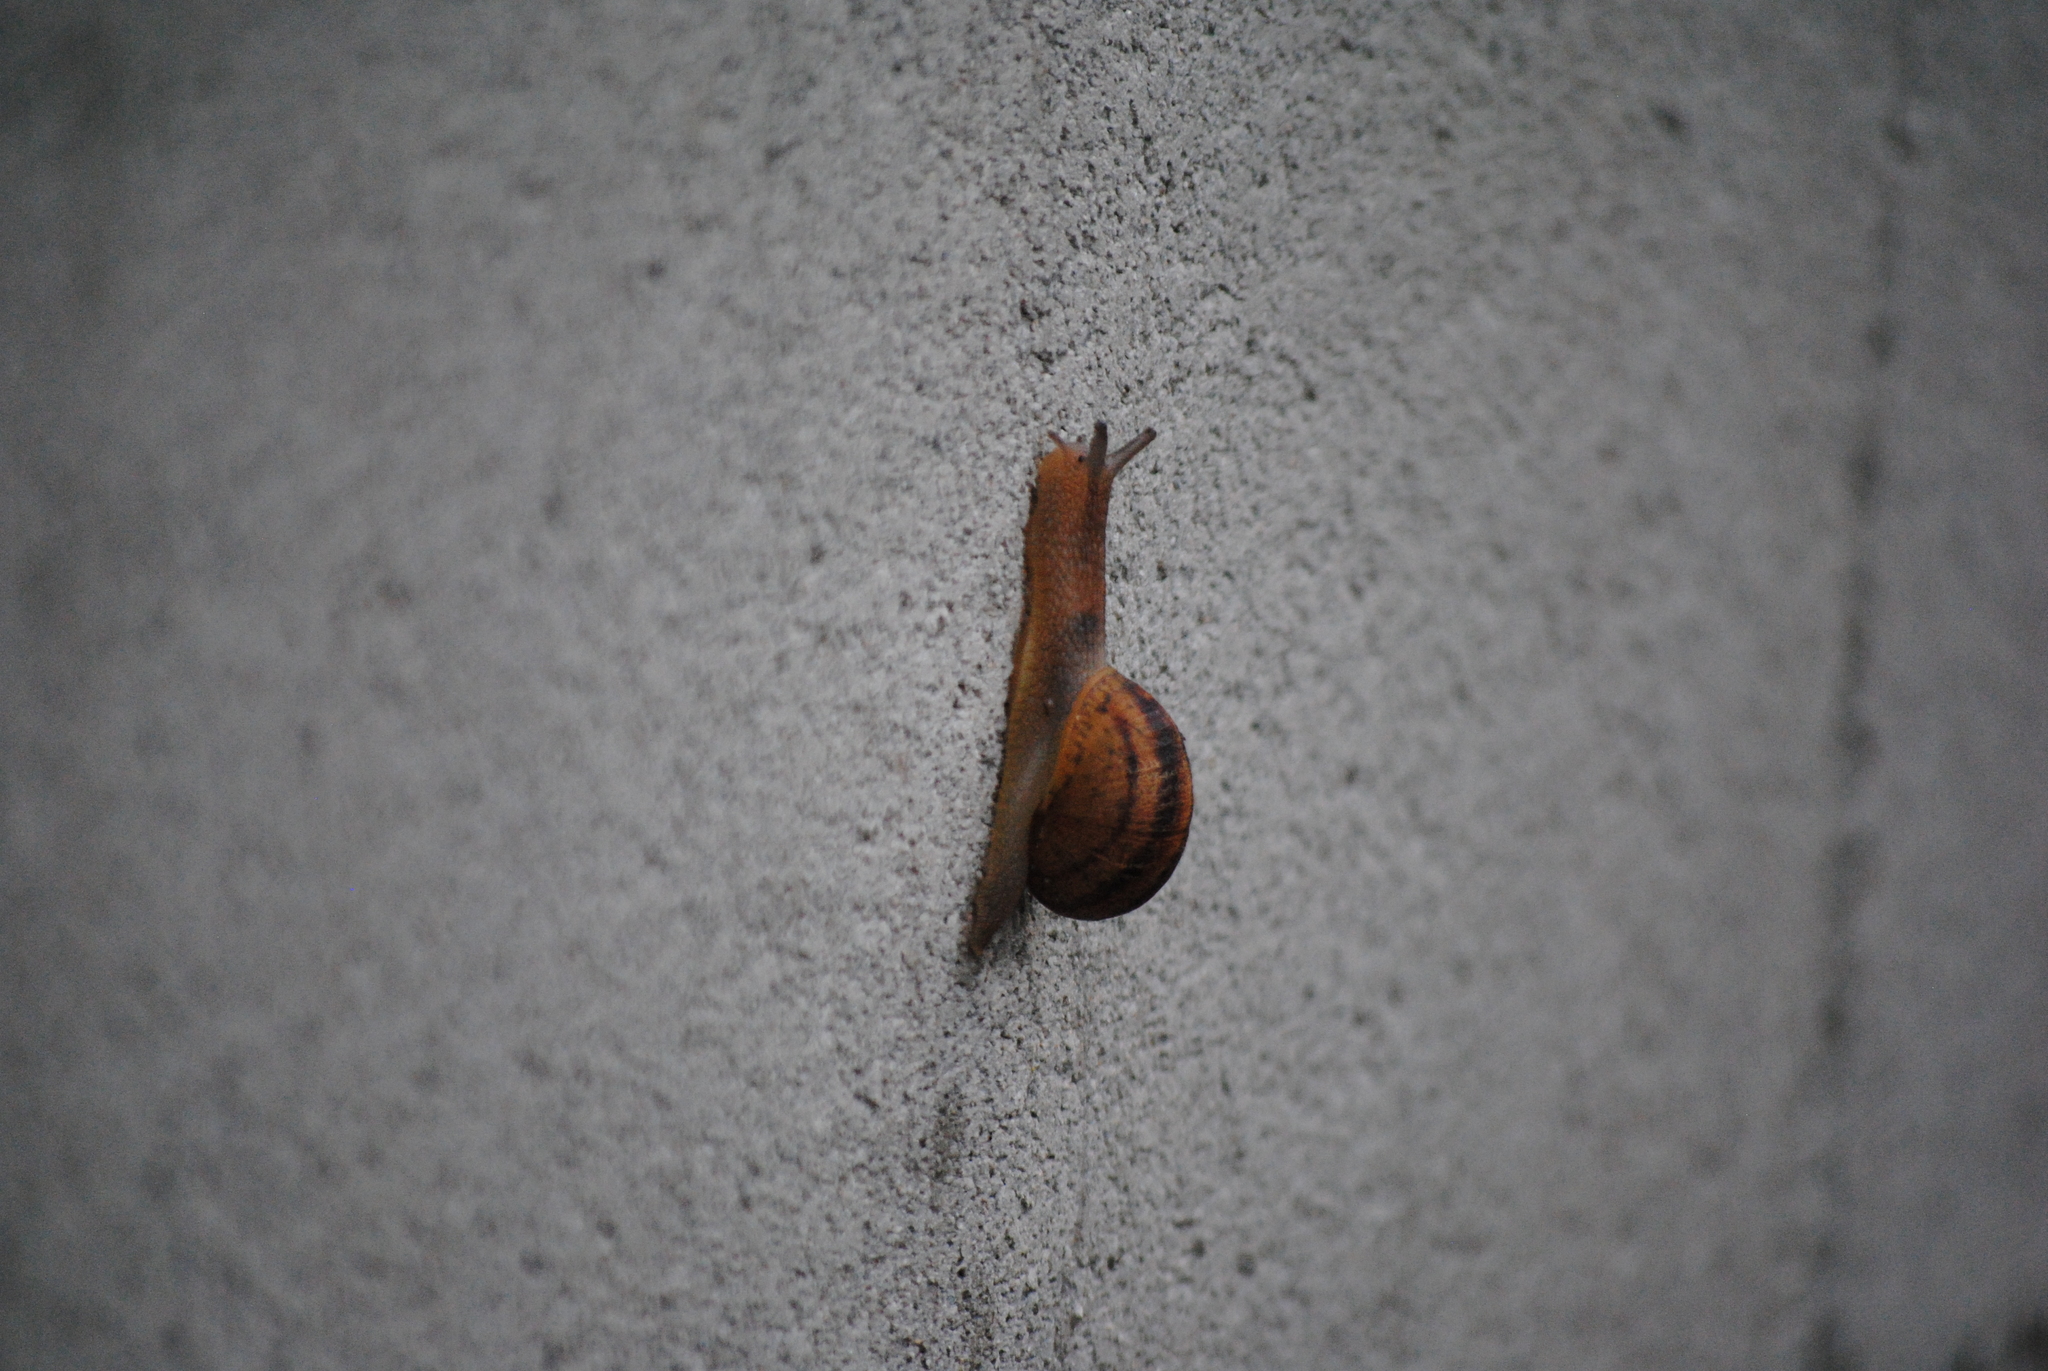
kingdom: Animalia
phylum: Mollusca
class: Gastropoda
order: Stylommatophora
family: Helicidae
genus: Cornu
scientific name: Cornu aspersum
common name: Brown garden snail
